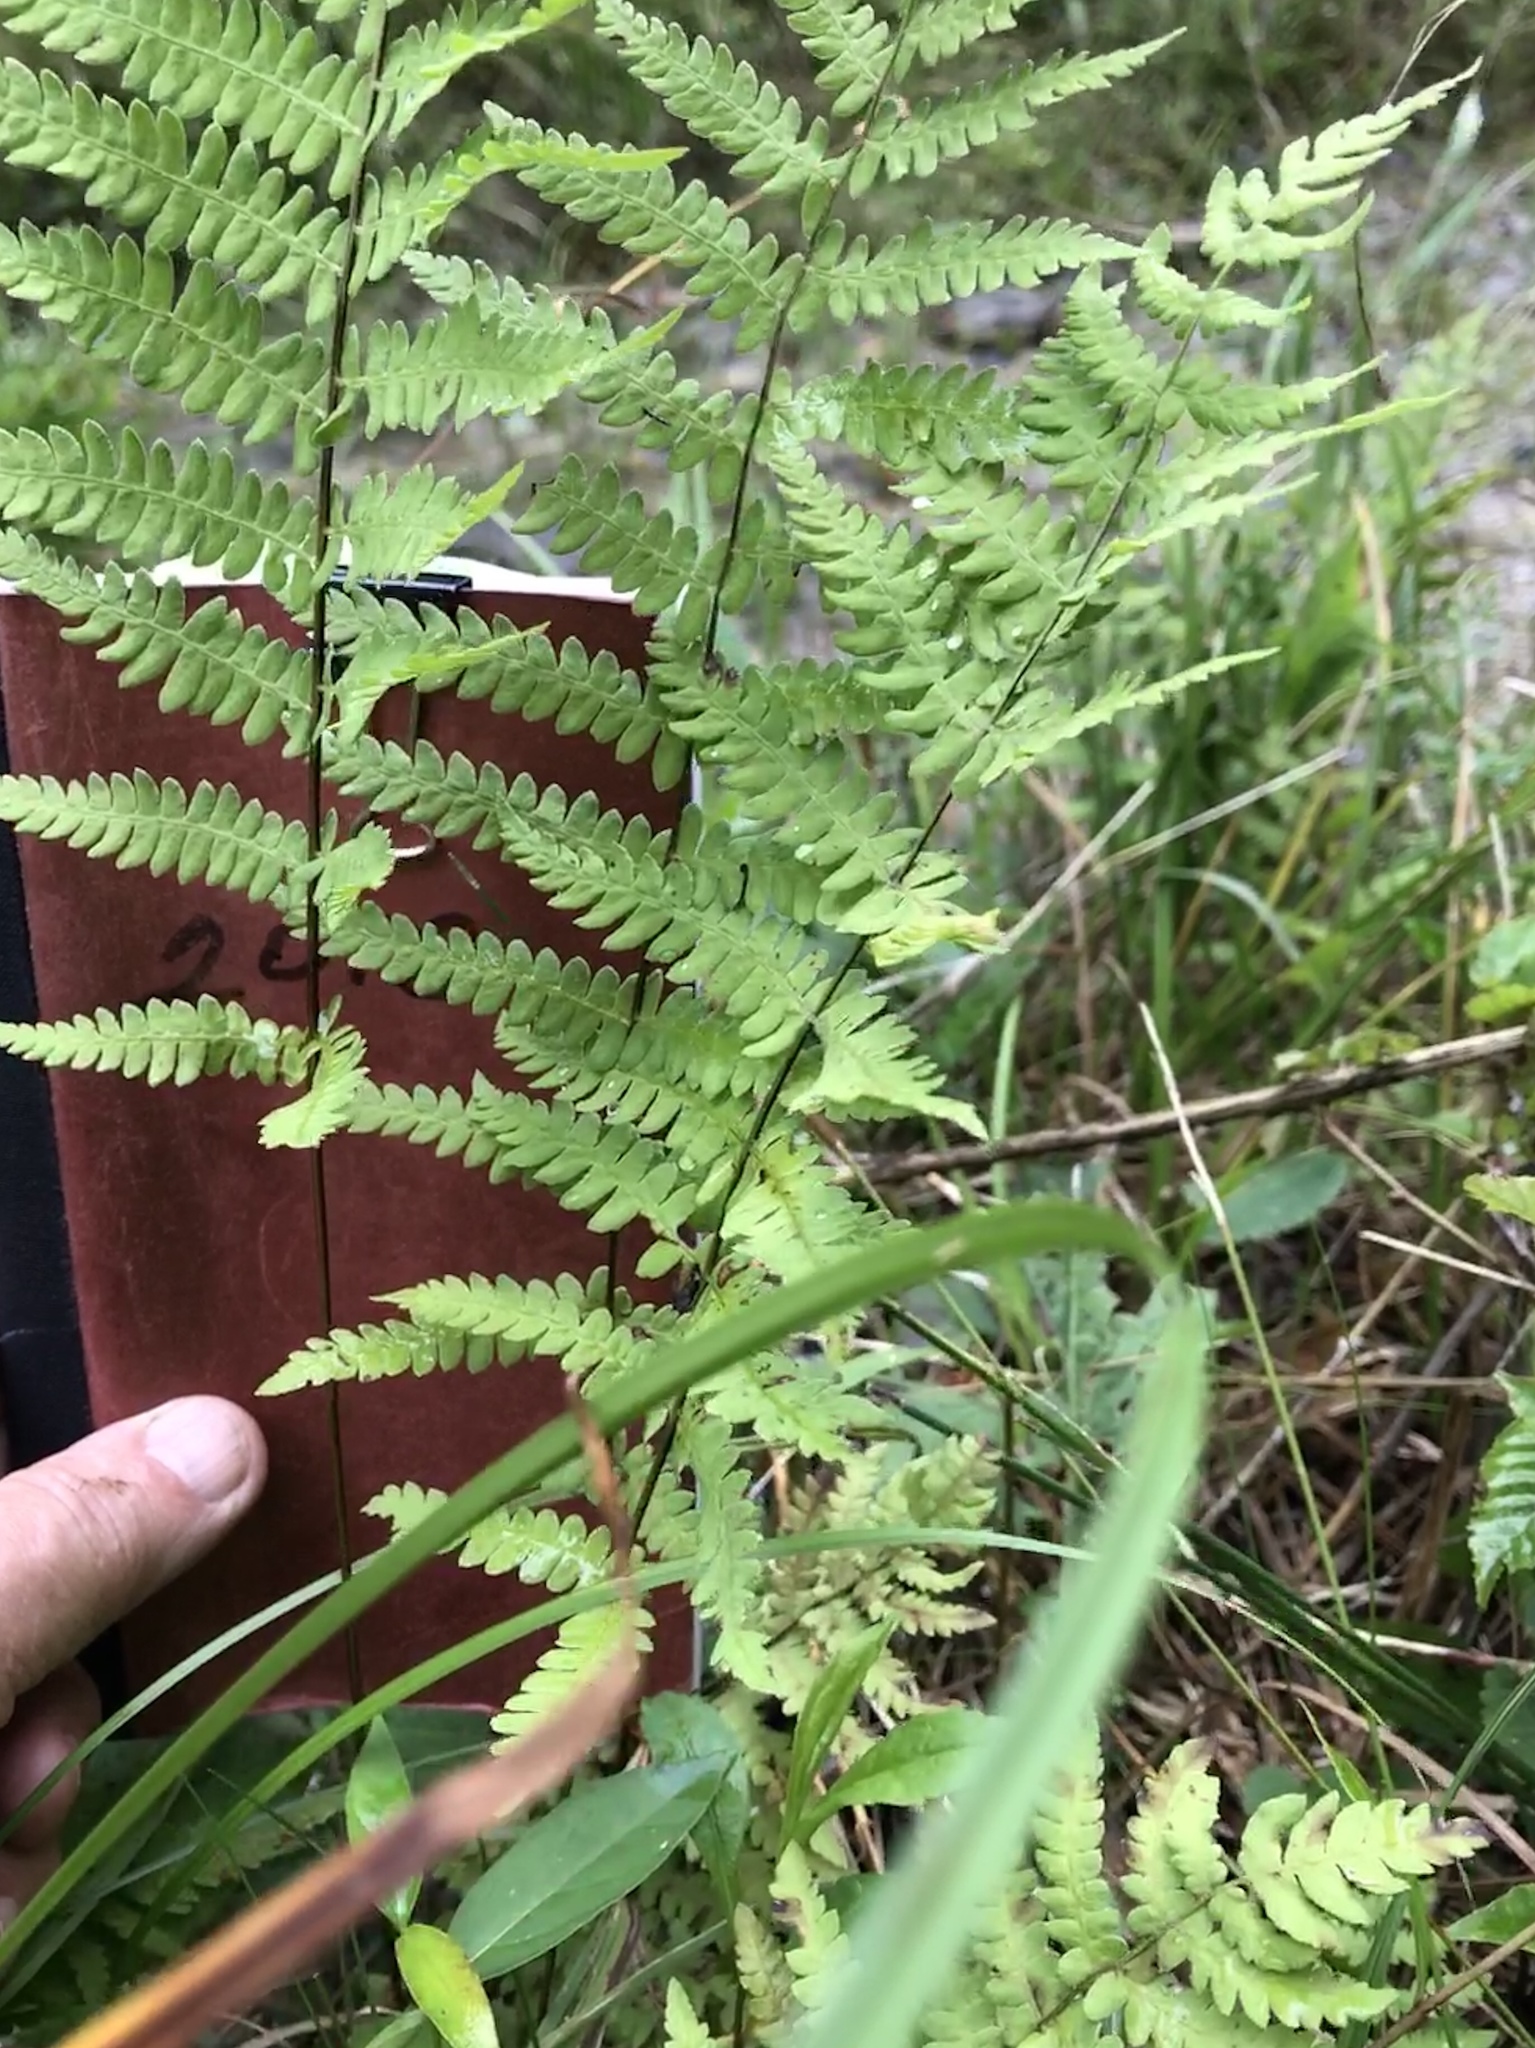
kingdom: Plantae
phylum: Tracheophyta
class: Polypodiopsida
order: Polypodiales
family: Thelypteridaceae
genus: Thelypteris
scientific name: Thelypteris palustris
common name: Marsh fern
